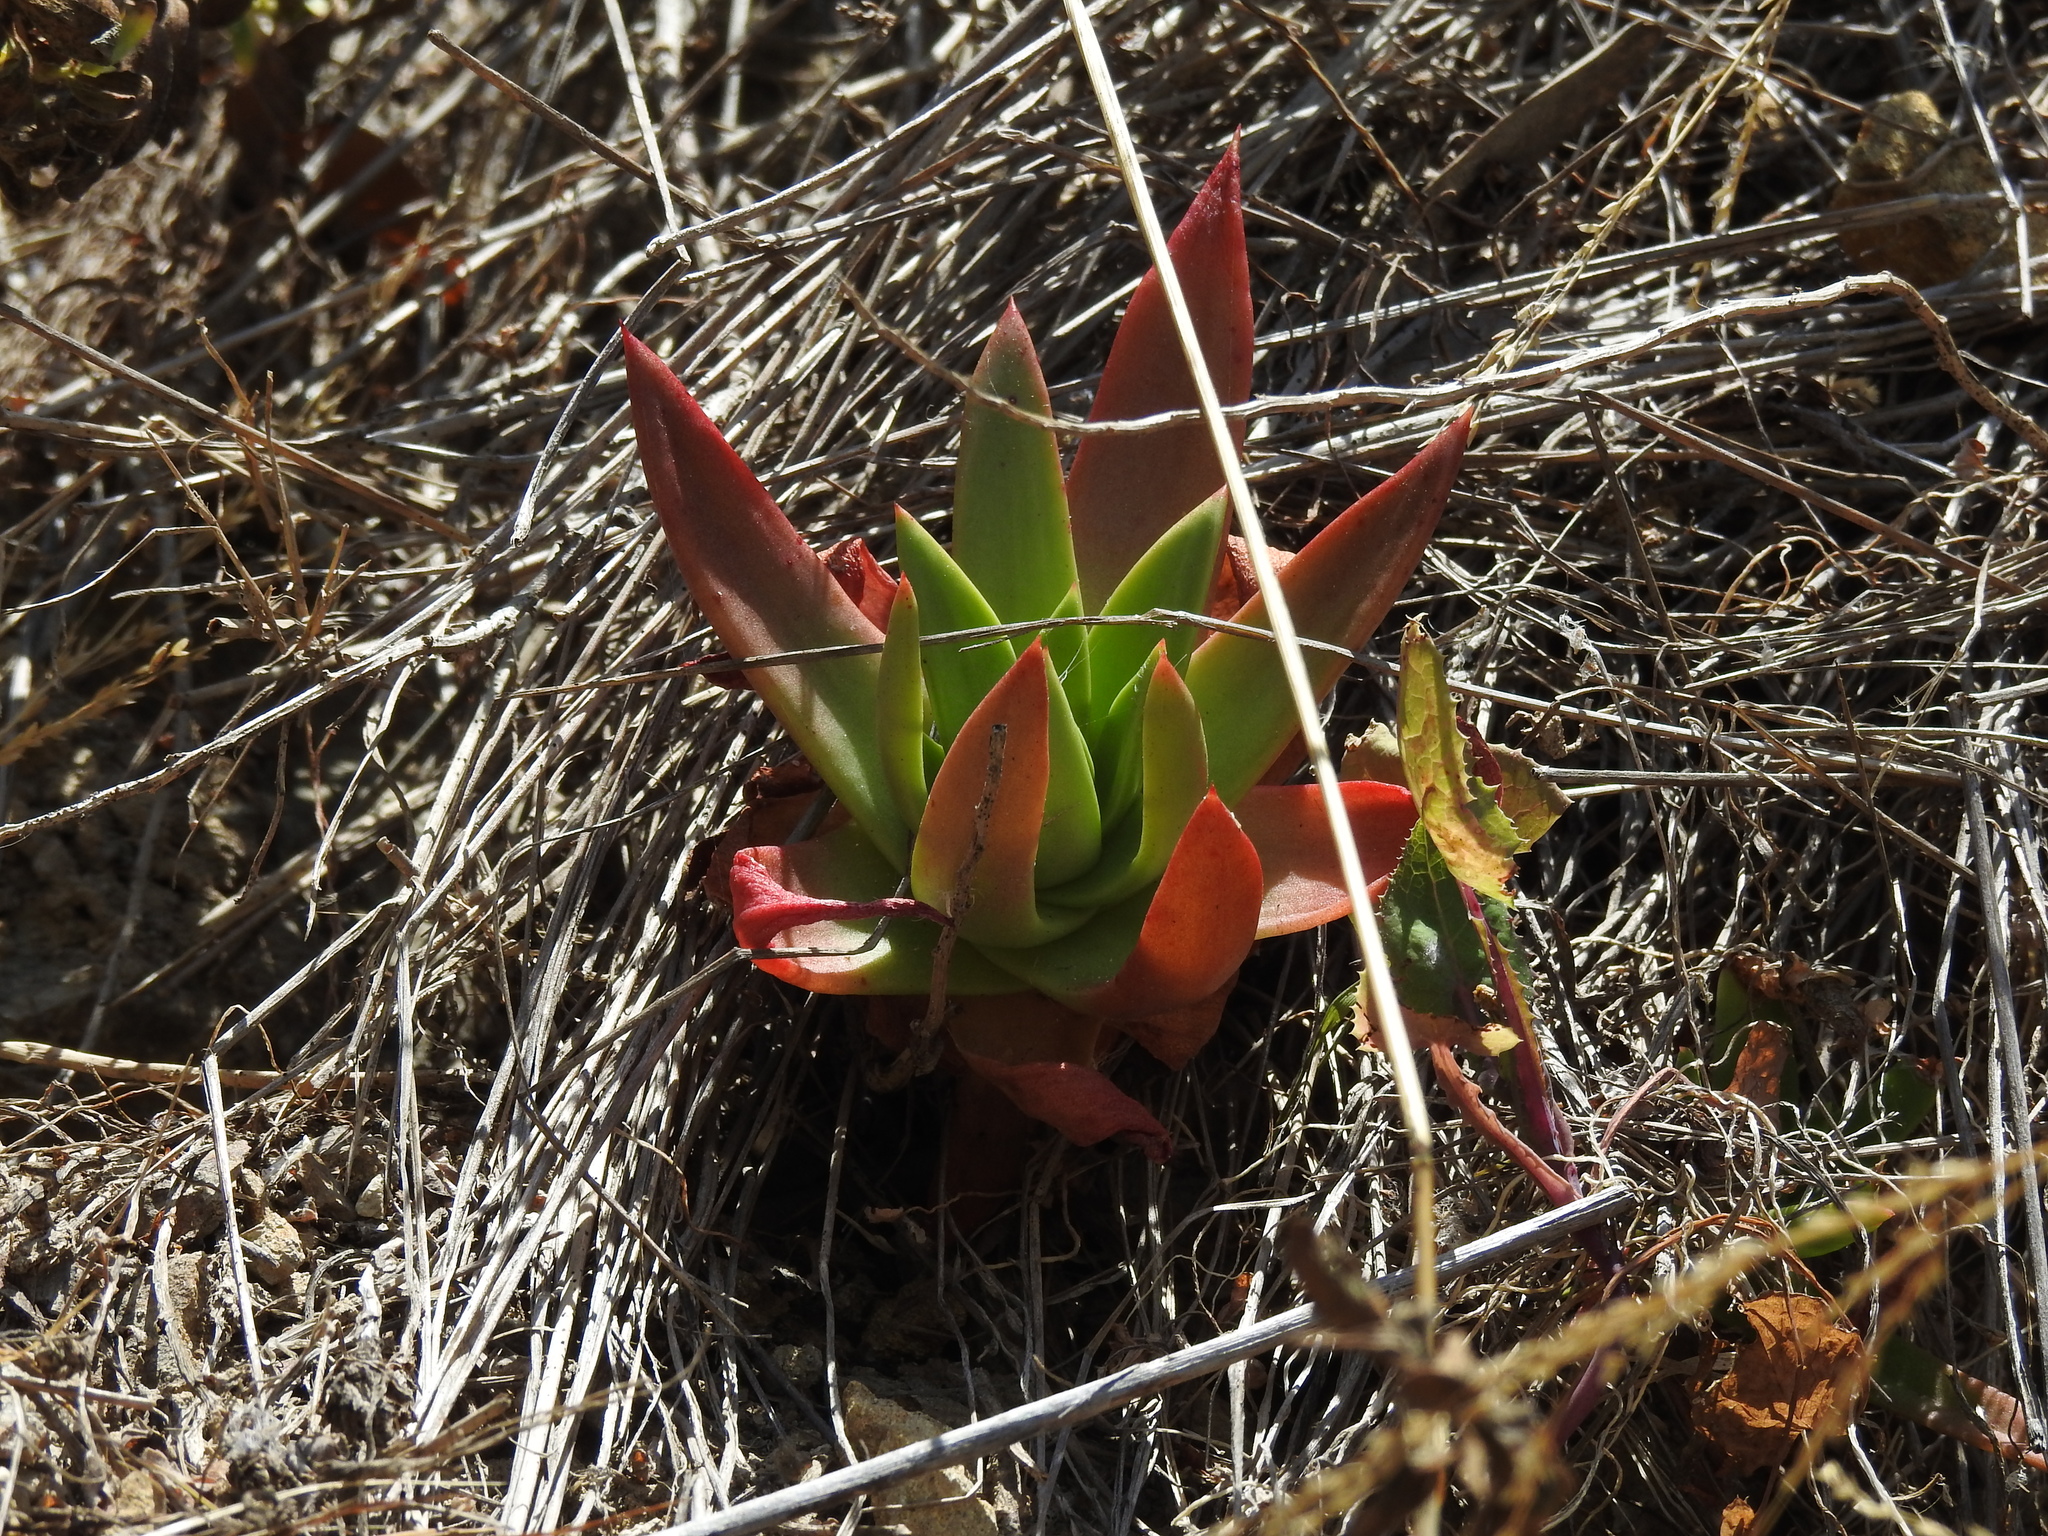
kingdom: Plantae
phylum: Tracheophyta
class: Magnoliopsida
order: Saxifragales
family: Crassulaceae
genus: Dudleya
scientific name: Dudleya farinosa
